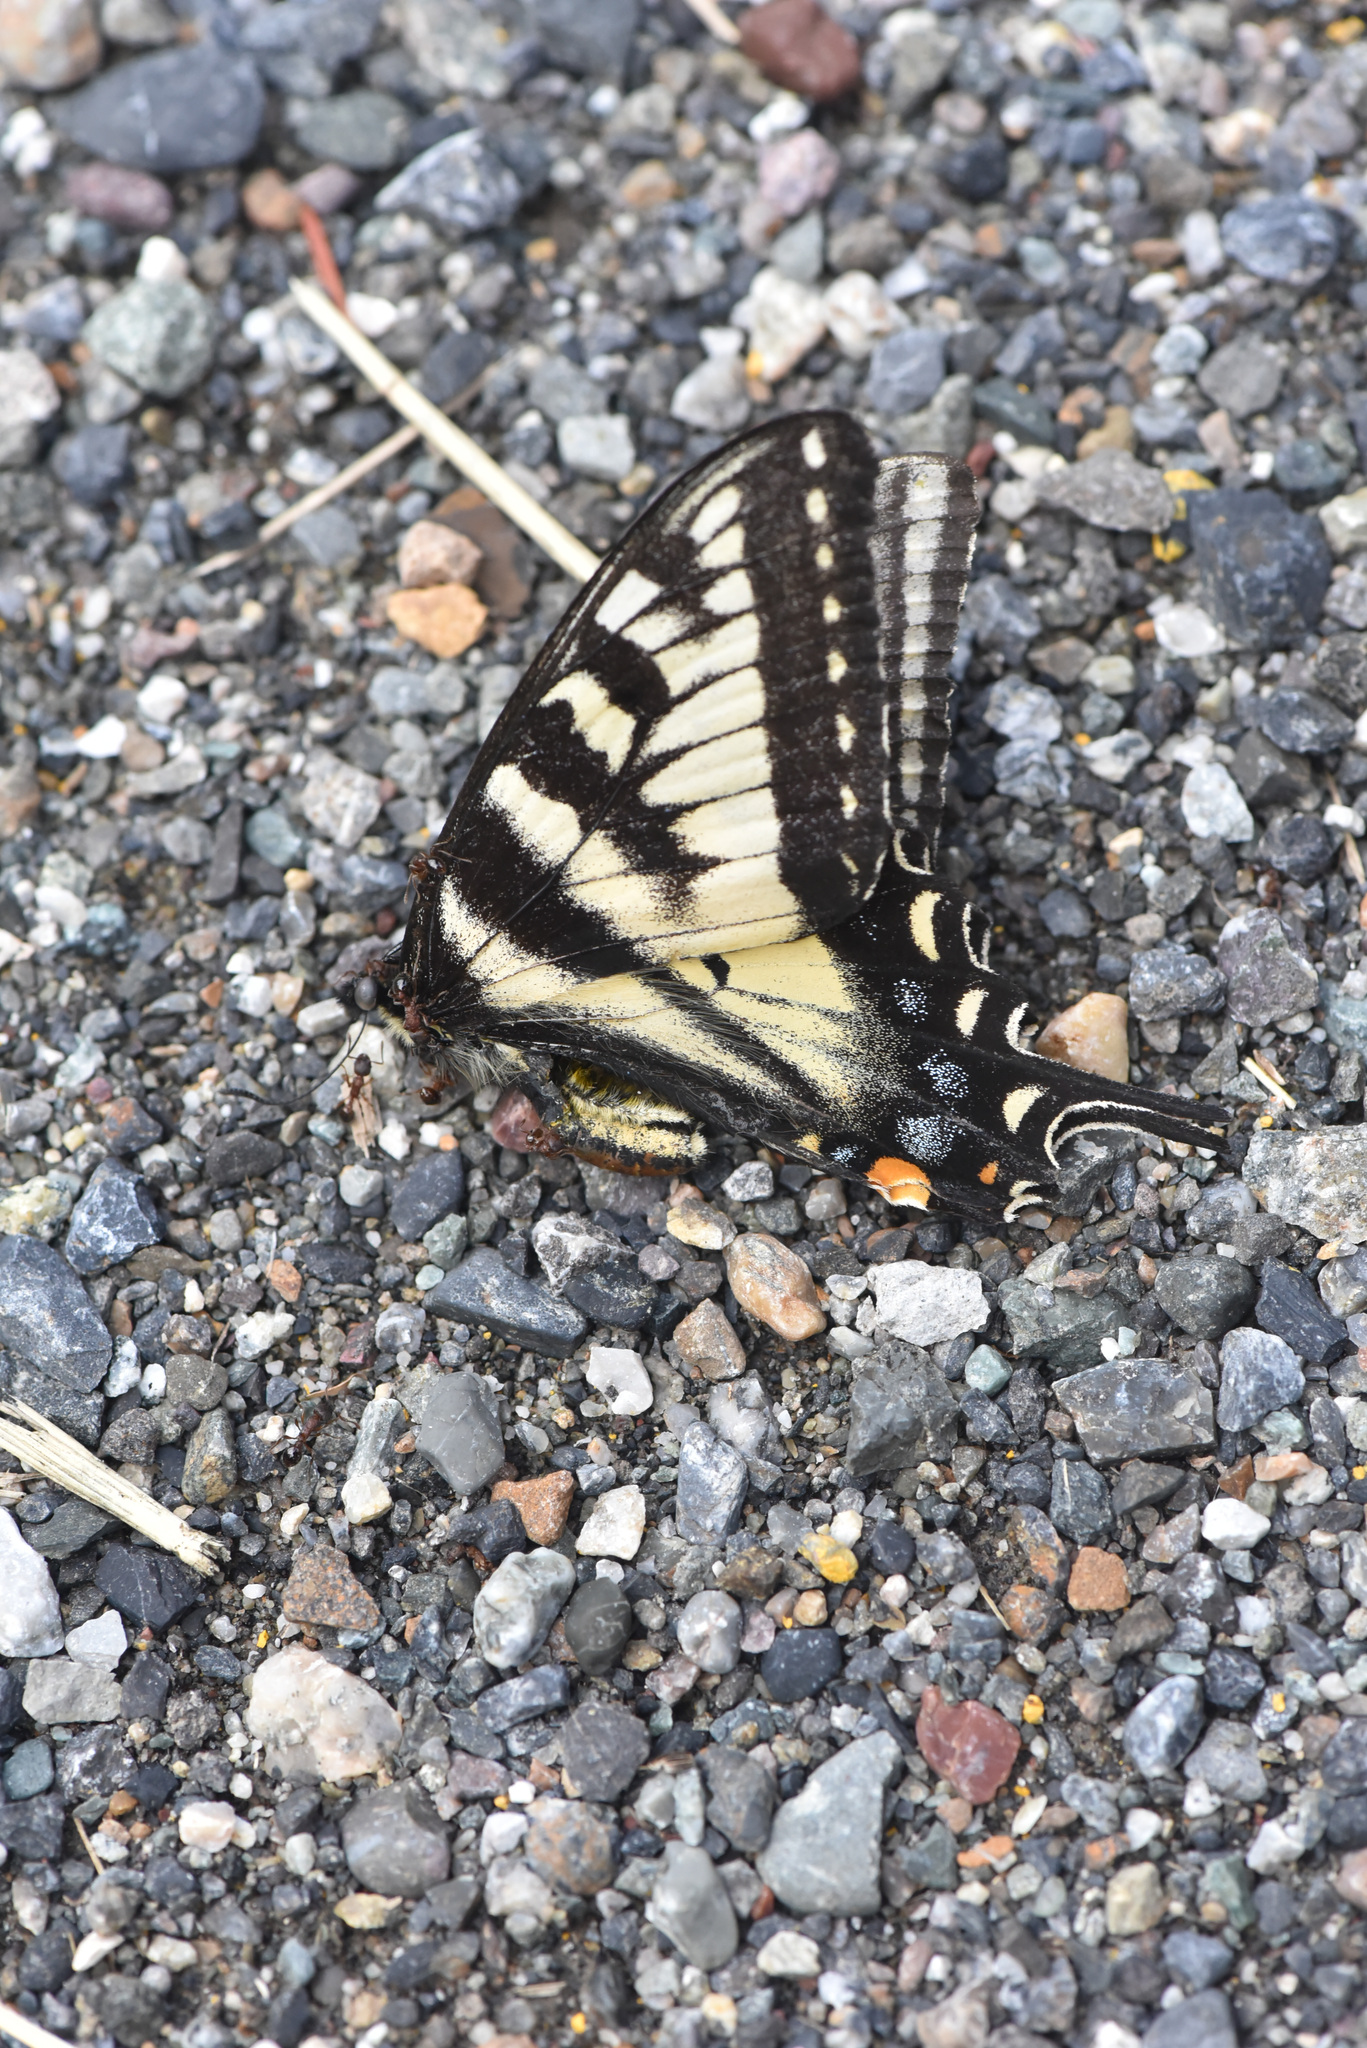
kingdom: Animalia
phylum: Arthropoda
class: Insecta
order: Lepidoptera
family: Papilionidae
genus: Papilio
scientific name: Papilio canadensis
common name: Canadian tiger swallowtail
